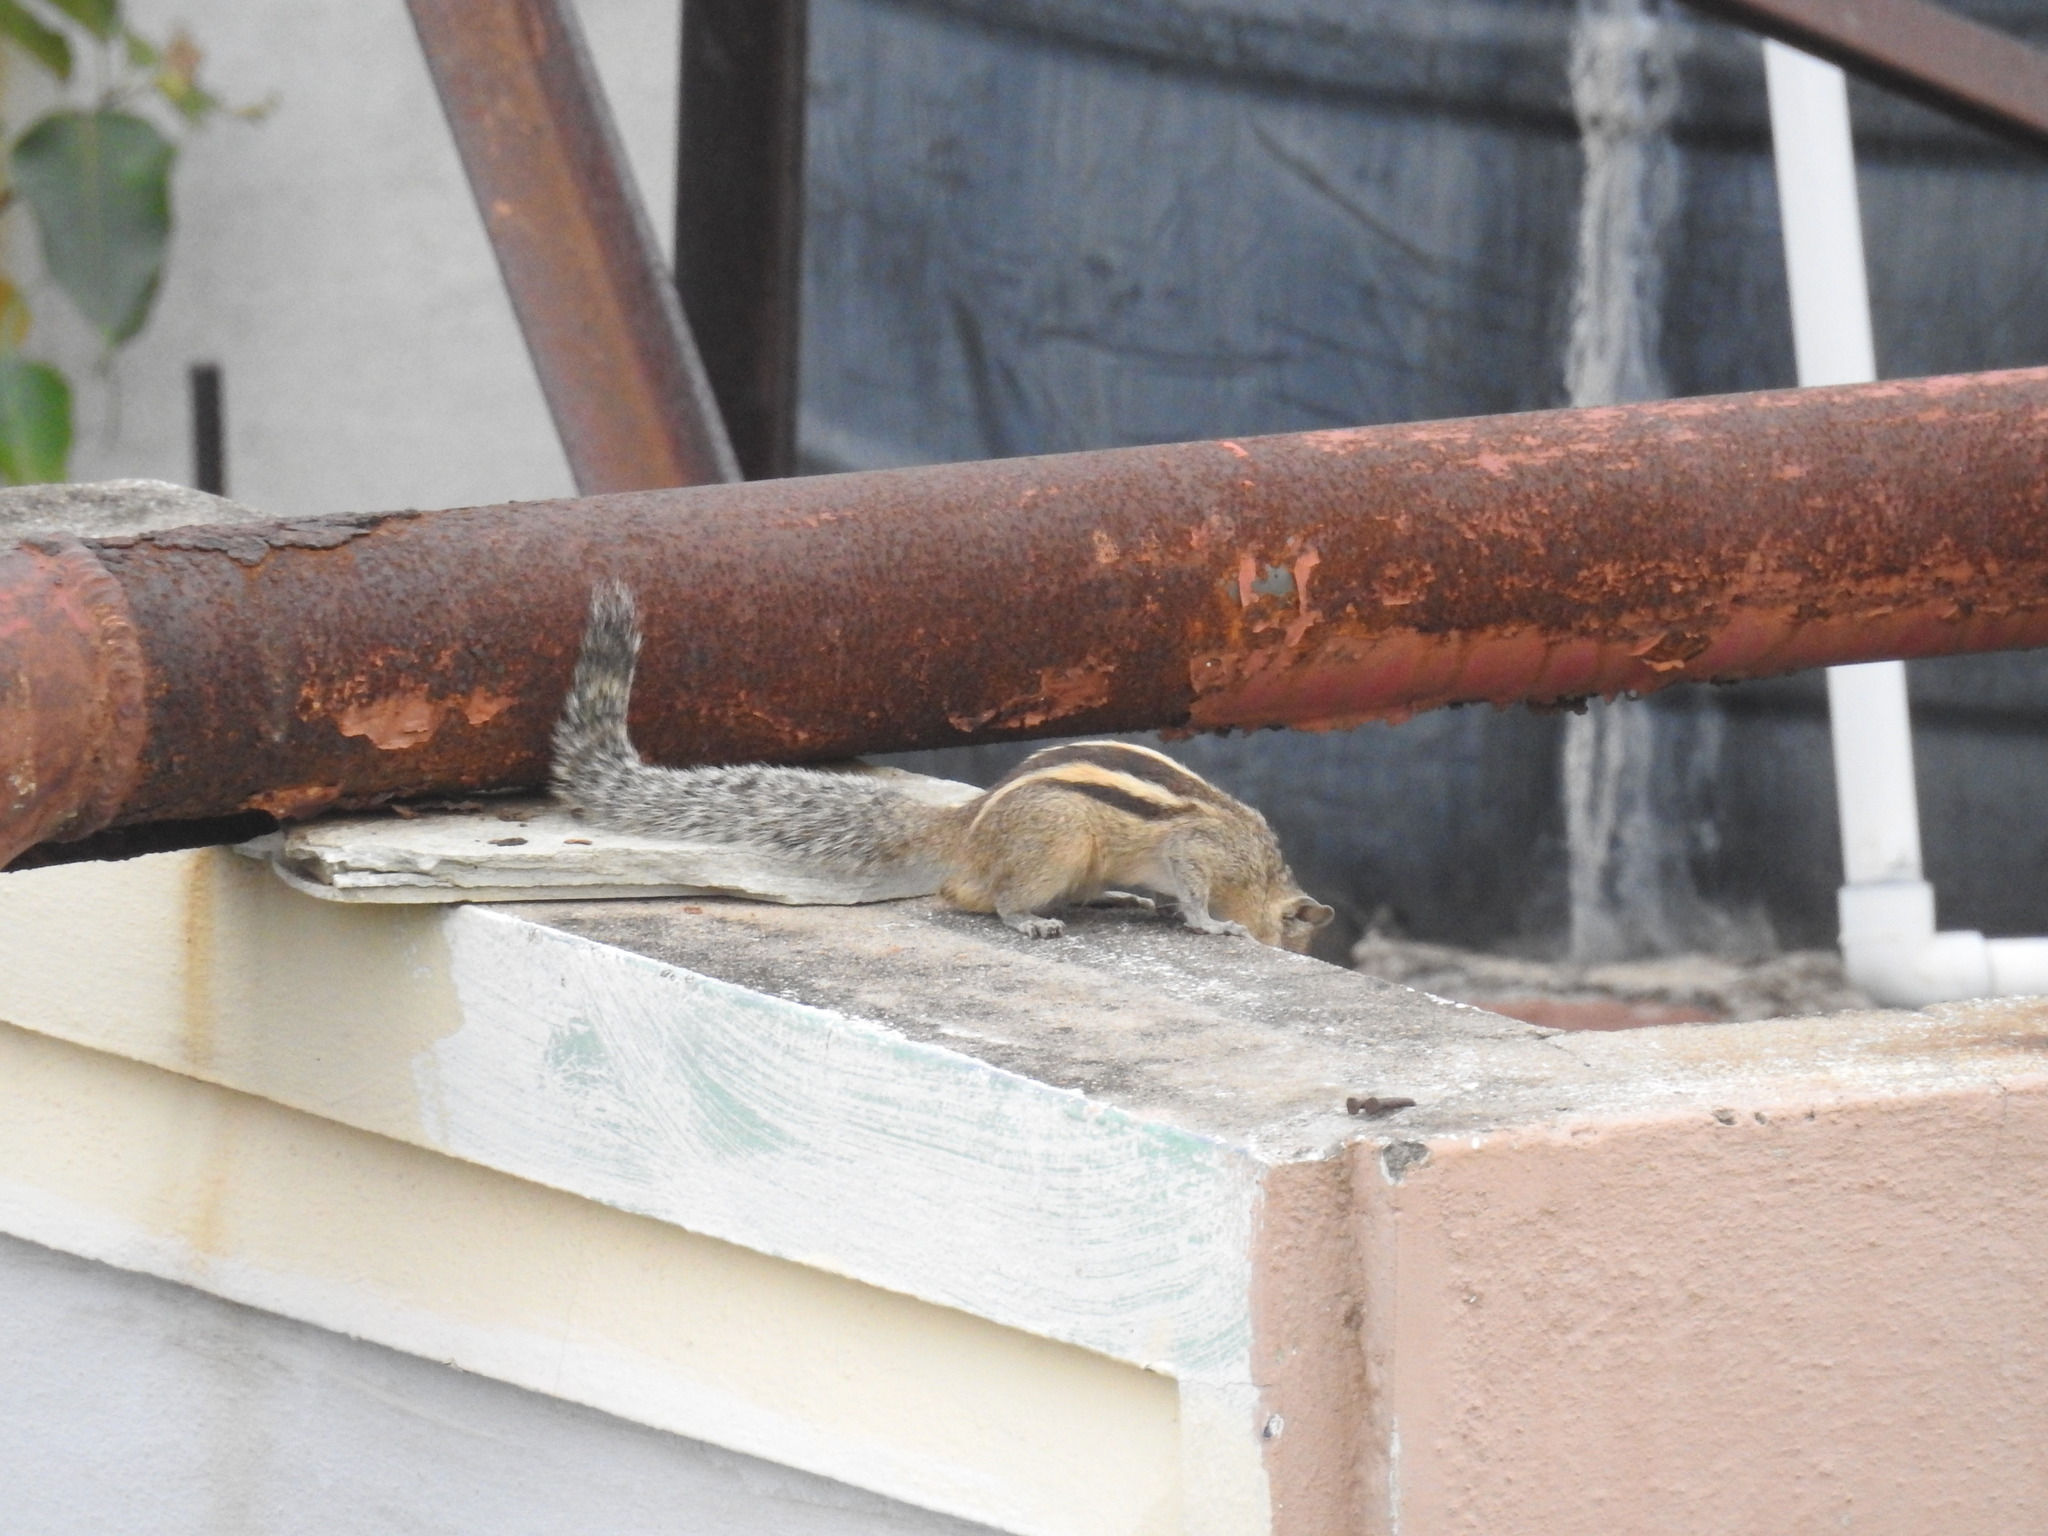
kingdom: Animalia
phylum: Chordata
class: Mammalia
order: Rodentia
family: Sciuridae
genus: Funambulus
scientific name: Funambulus palmarum
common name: Indian palm squirrel
